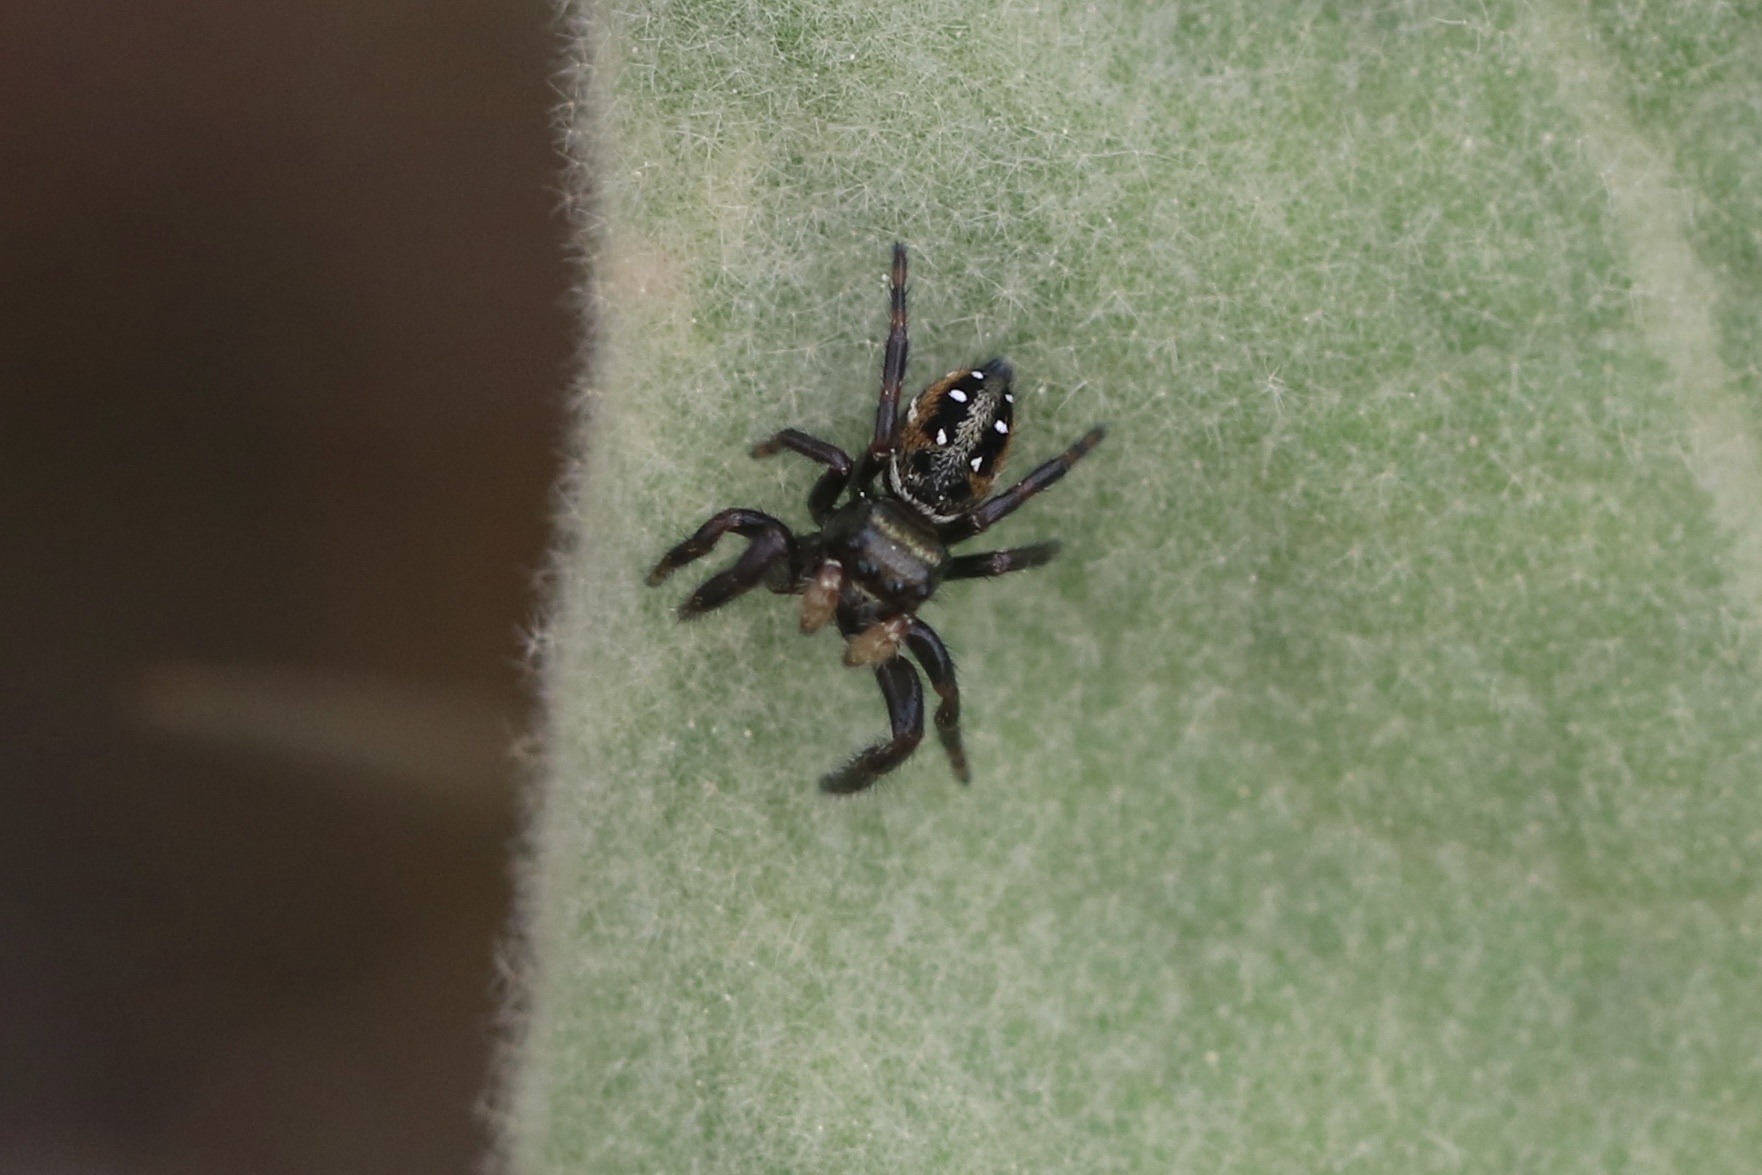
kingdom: Animalia
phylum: Arthropoda
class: Arachnida
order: Araneae
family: Salticidae
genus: Phidippus
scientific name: Phidippus clarus
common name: Brilliant jumping spider
